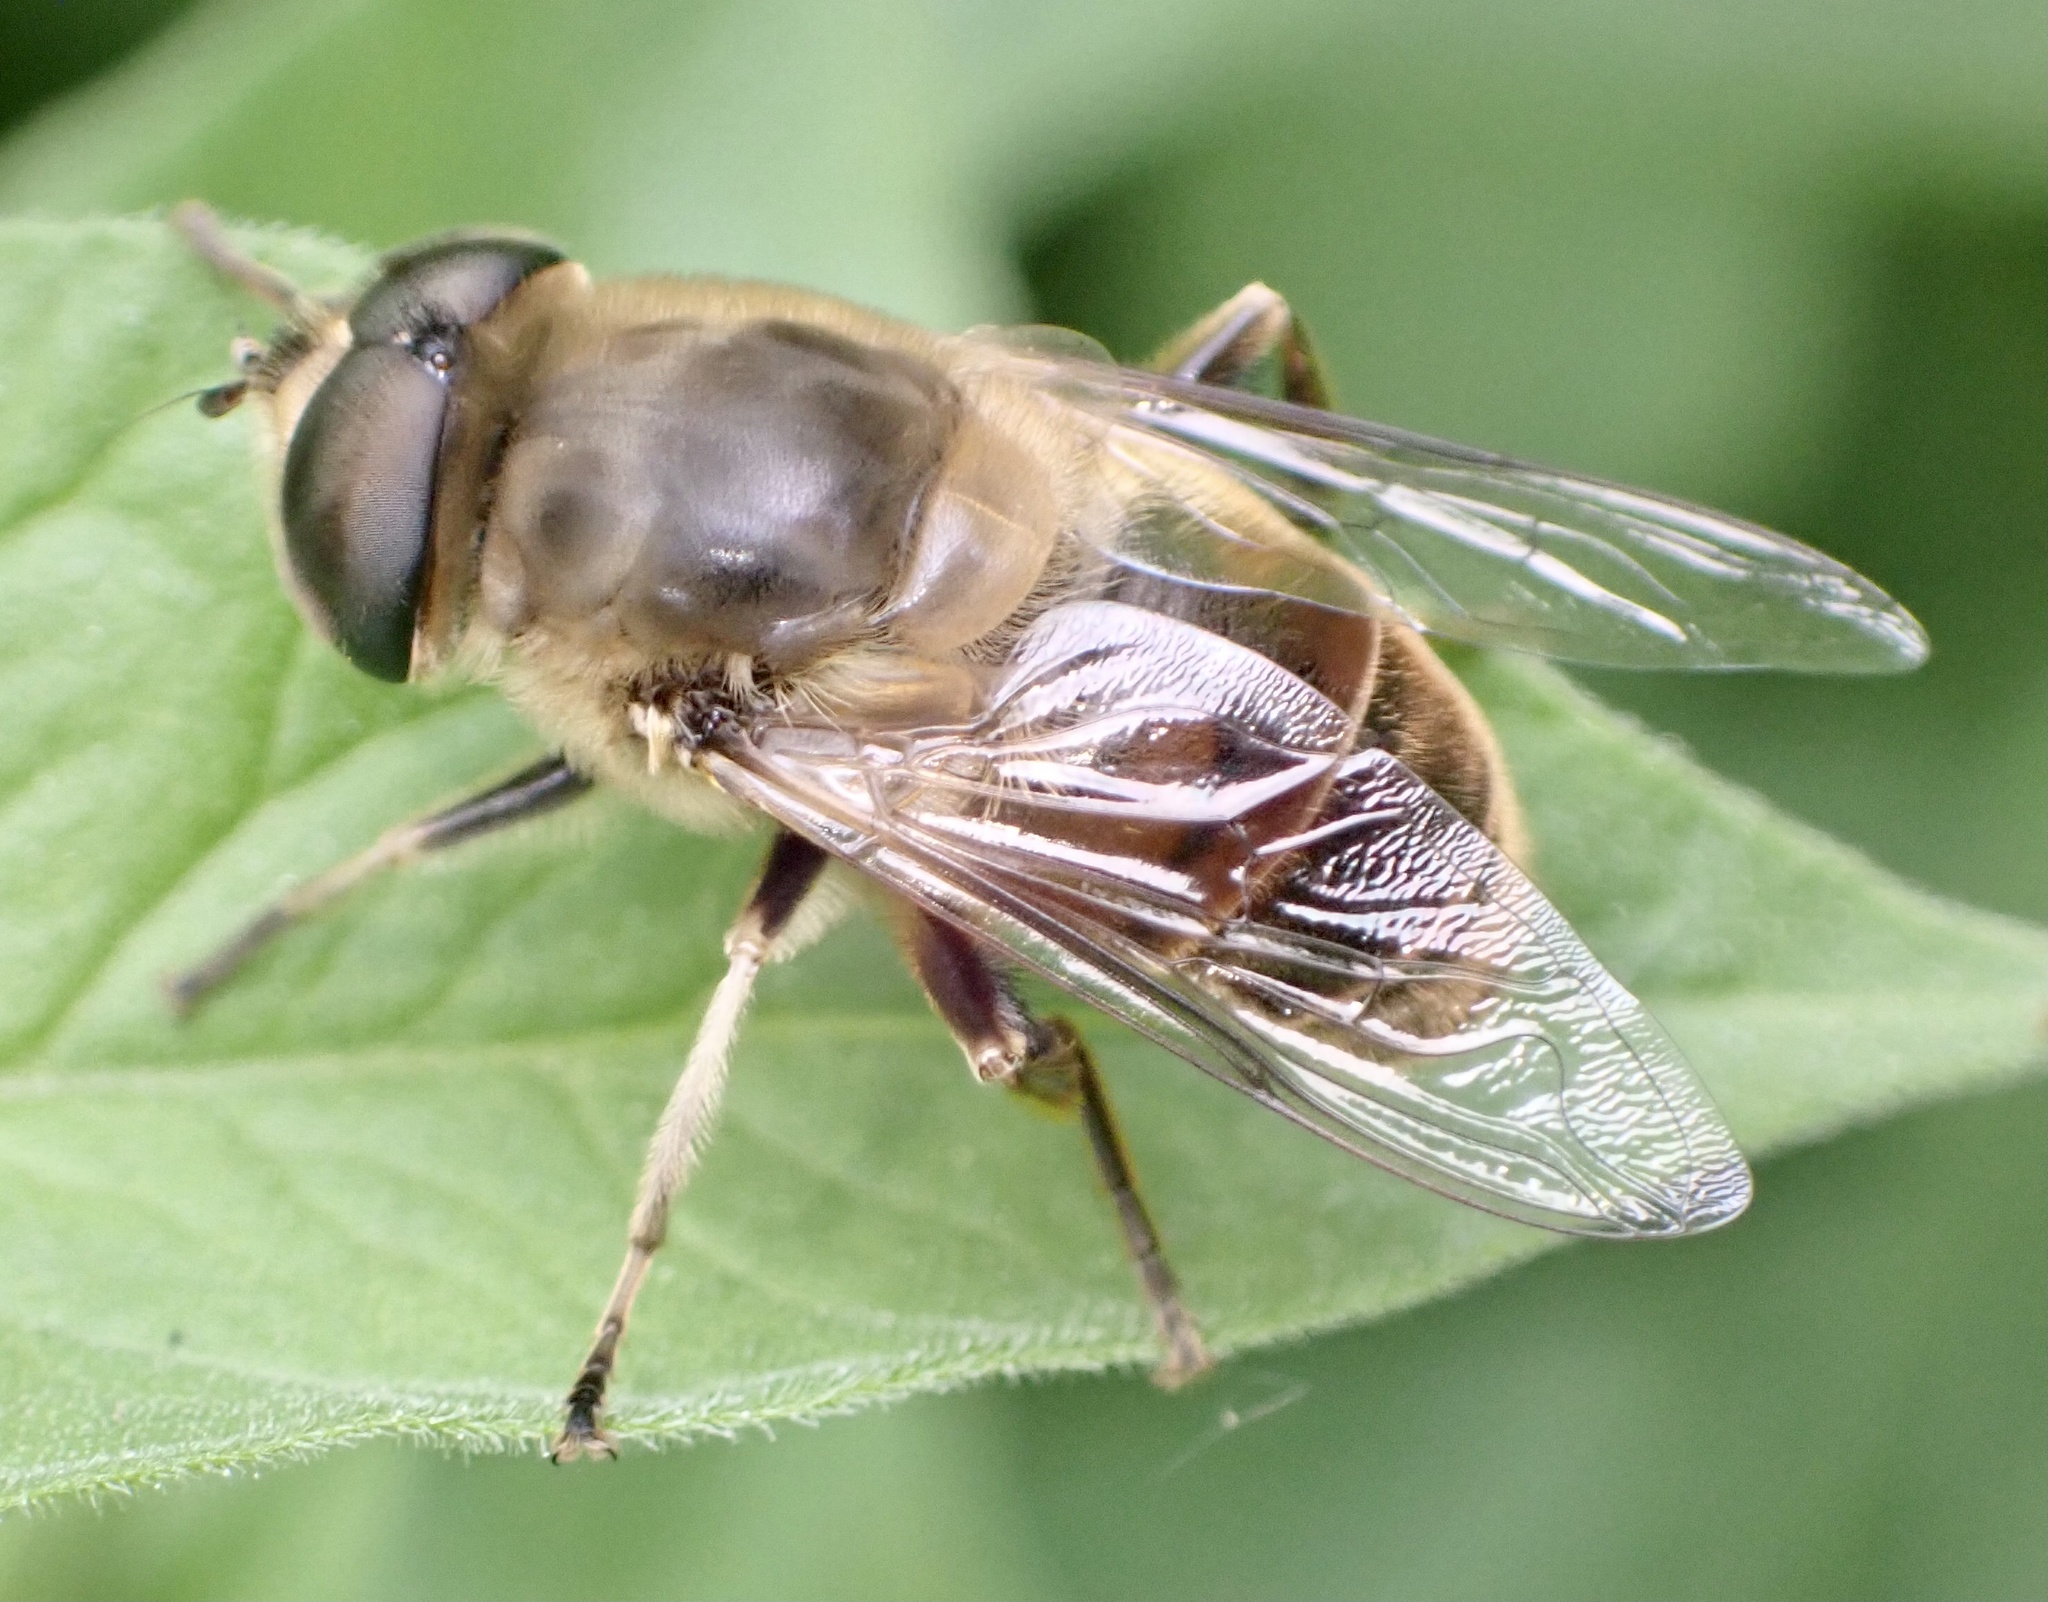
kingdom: Animalia
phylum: Arthropoda
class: Insecta
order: Diptera
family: Syrphidae
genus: Eristalis
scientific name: Eristalis tenax
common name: Drone fly
